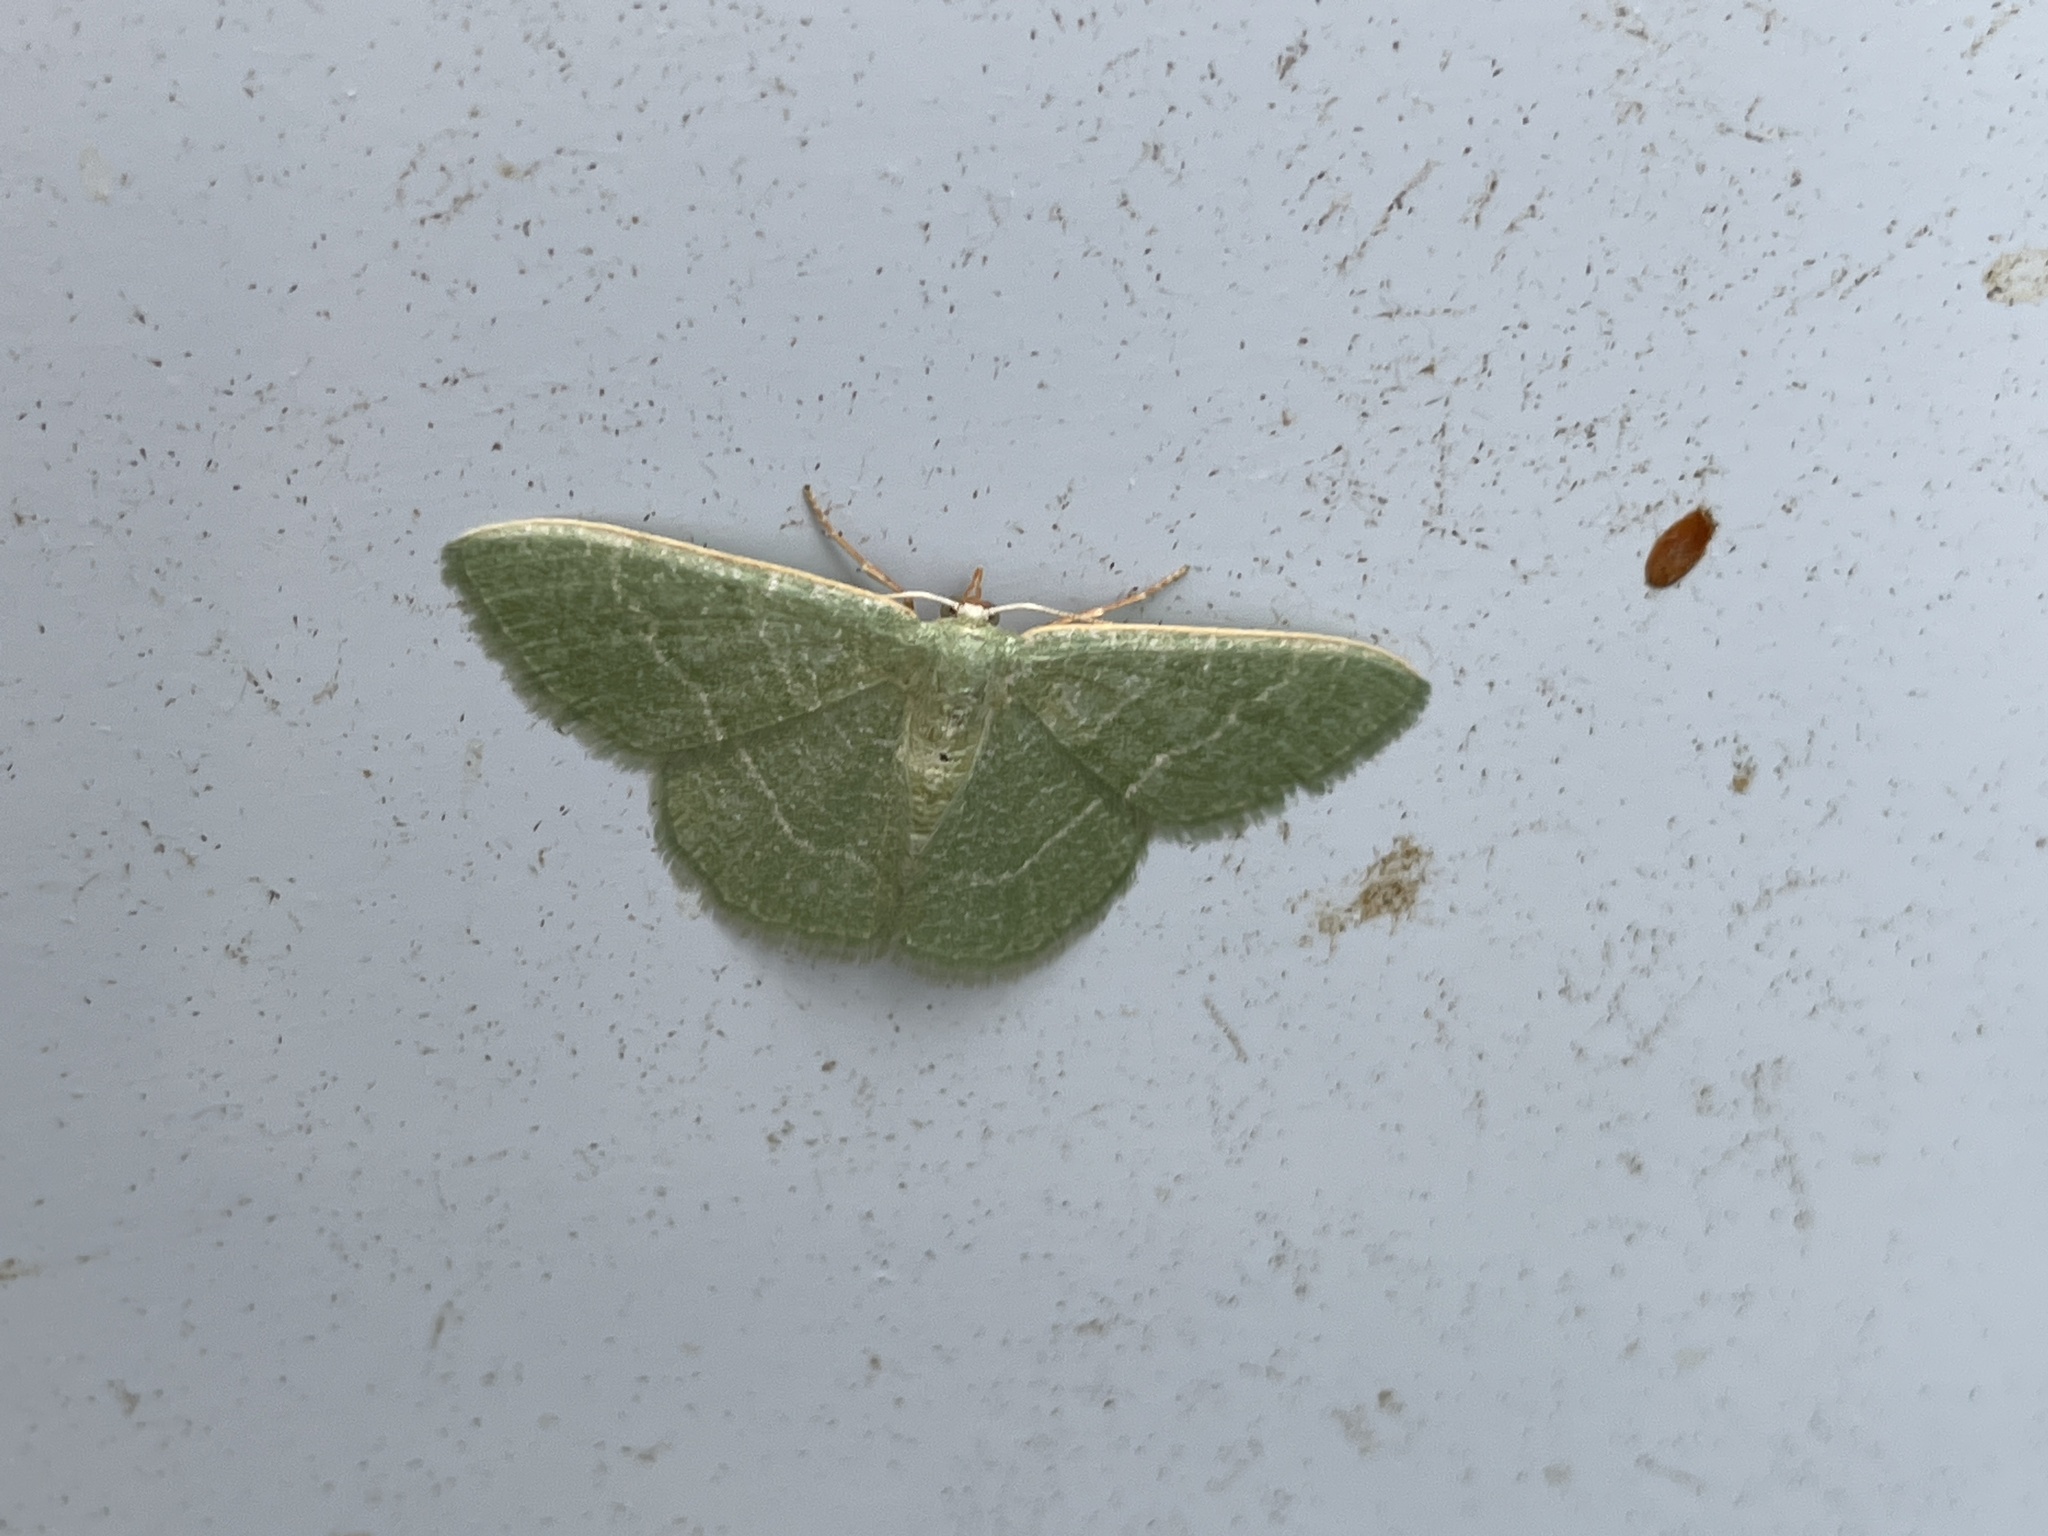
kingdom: Animalia
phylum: Arthropoda
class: Insecta
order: Lepidoptera
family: Geometridae
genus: Chlorissa
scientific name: Chlorissa etruscaria
